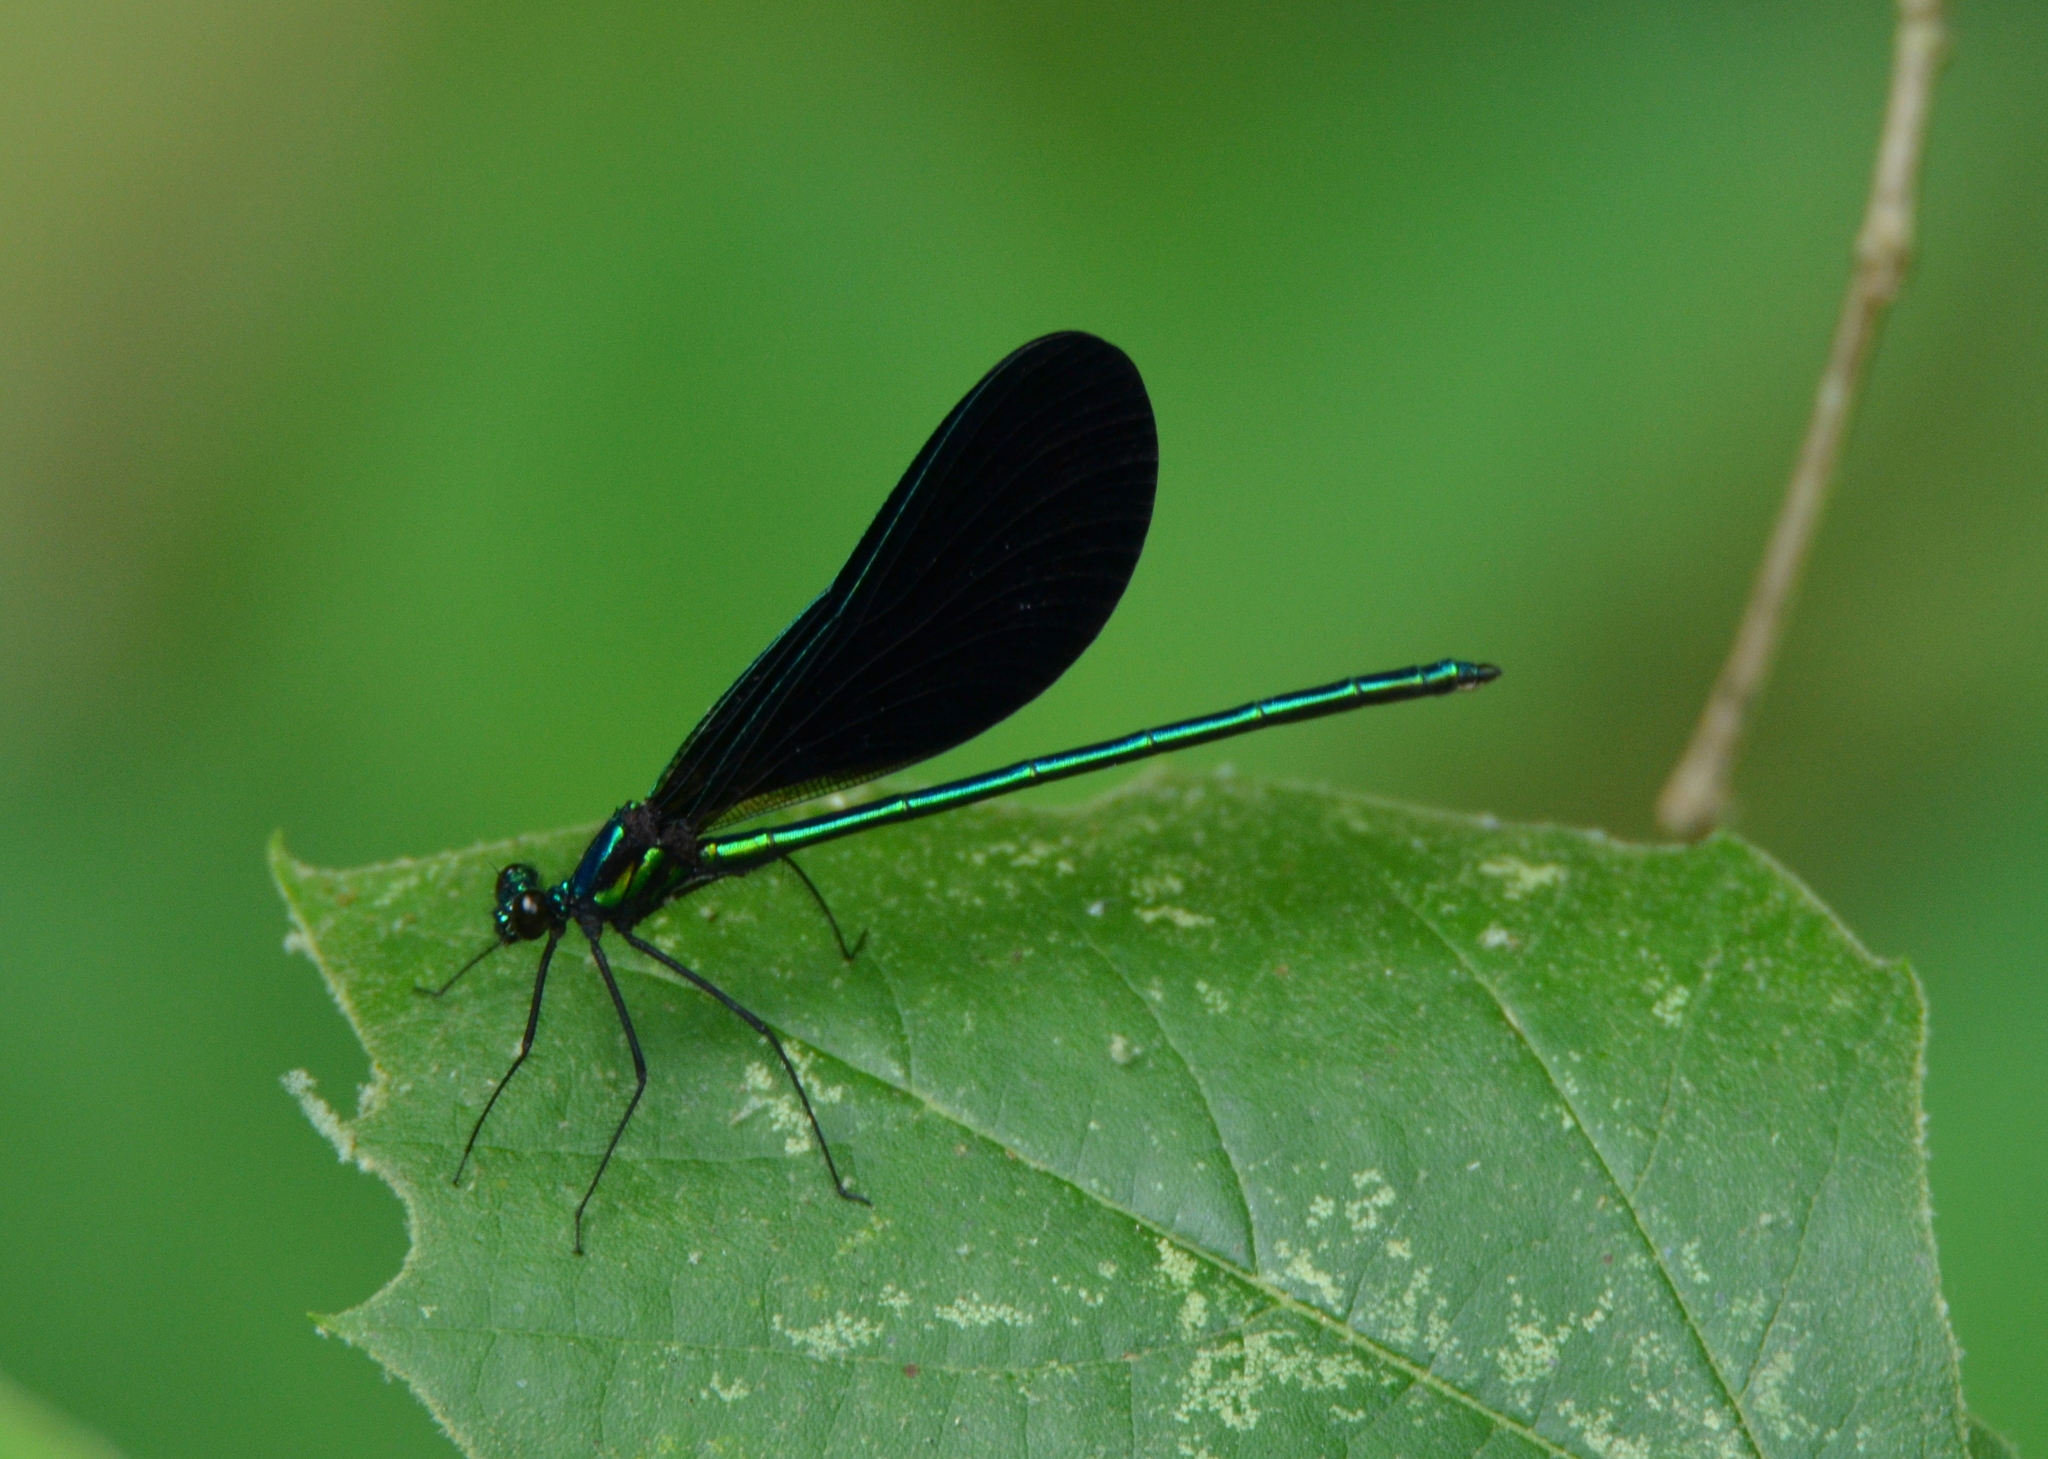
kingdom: Animalia
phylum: Arthropoda
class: Insecta
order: Odonata
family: Calopterygidae
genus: Calopteryx
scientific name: Calopteryx maculata
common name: Ebony jewelwing
